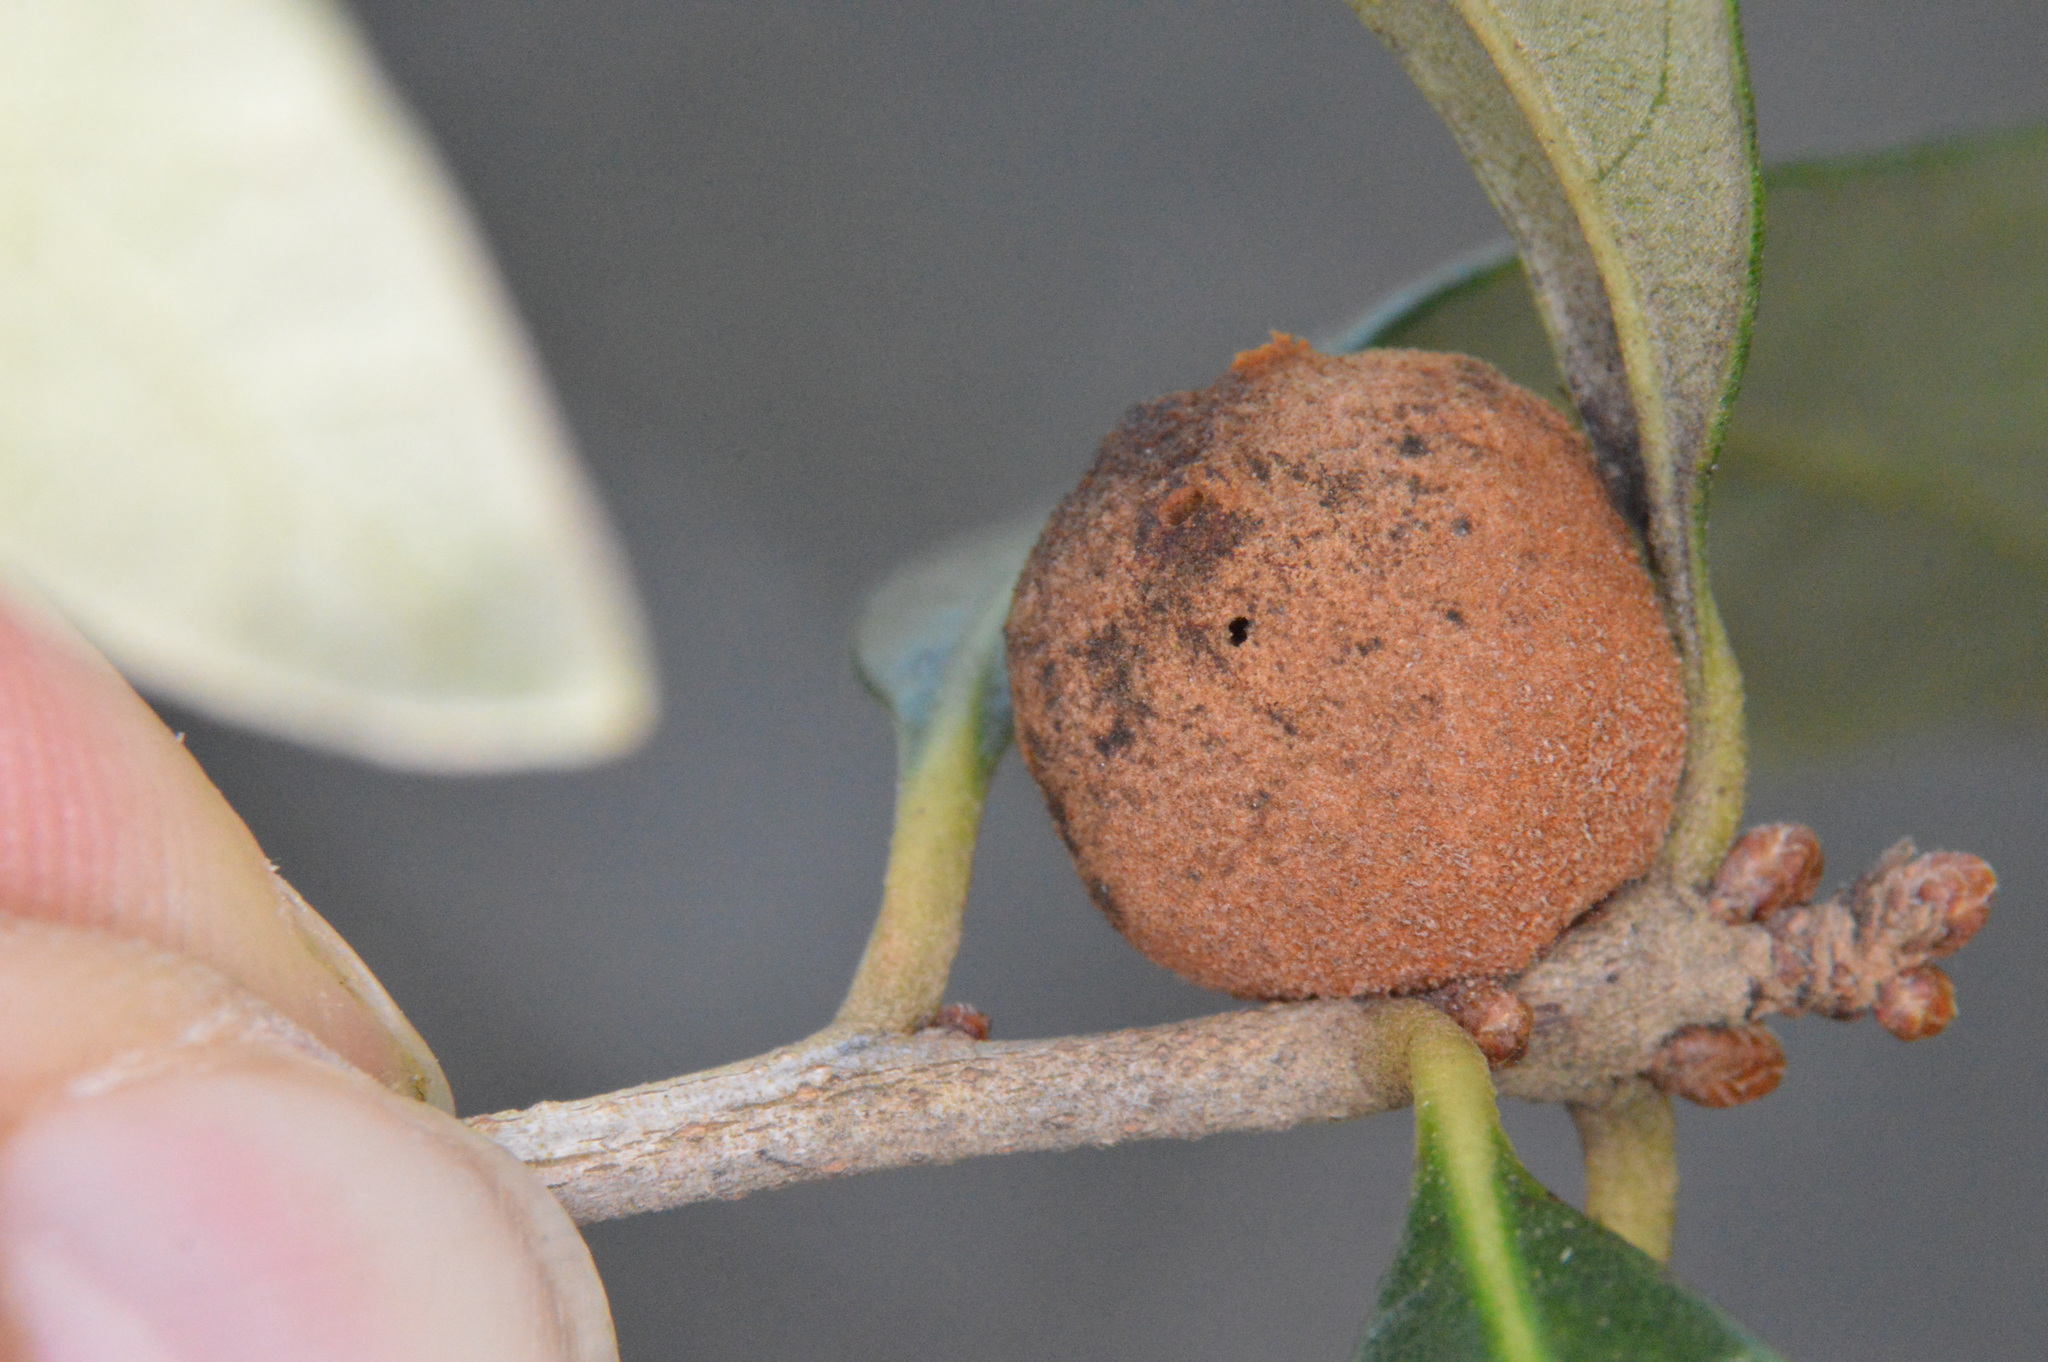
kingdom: Animalia
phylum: Arthropoda
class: Insecta
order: Hymenoptera
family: Cynipidae
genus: Disholcaspis
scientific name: Disholcaspis
